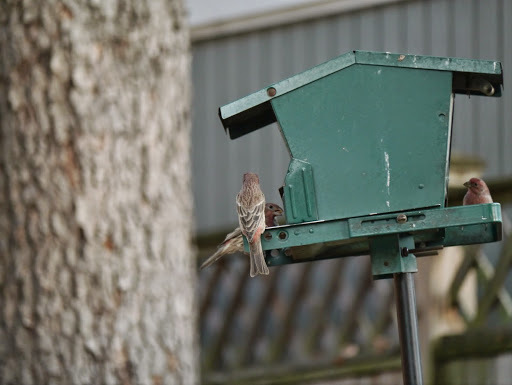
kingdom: Animalia
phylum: Chordata
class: Aves
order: Passeriformes
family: Fringillidae
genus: Haemorhous
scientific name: Haemorhous mexicanus
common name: House finch
